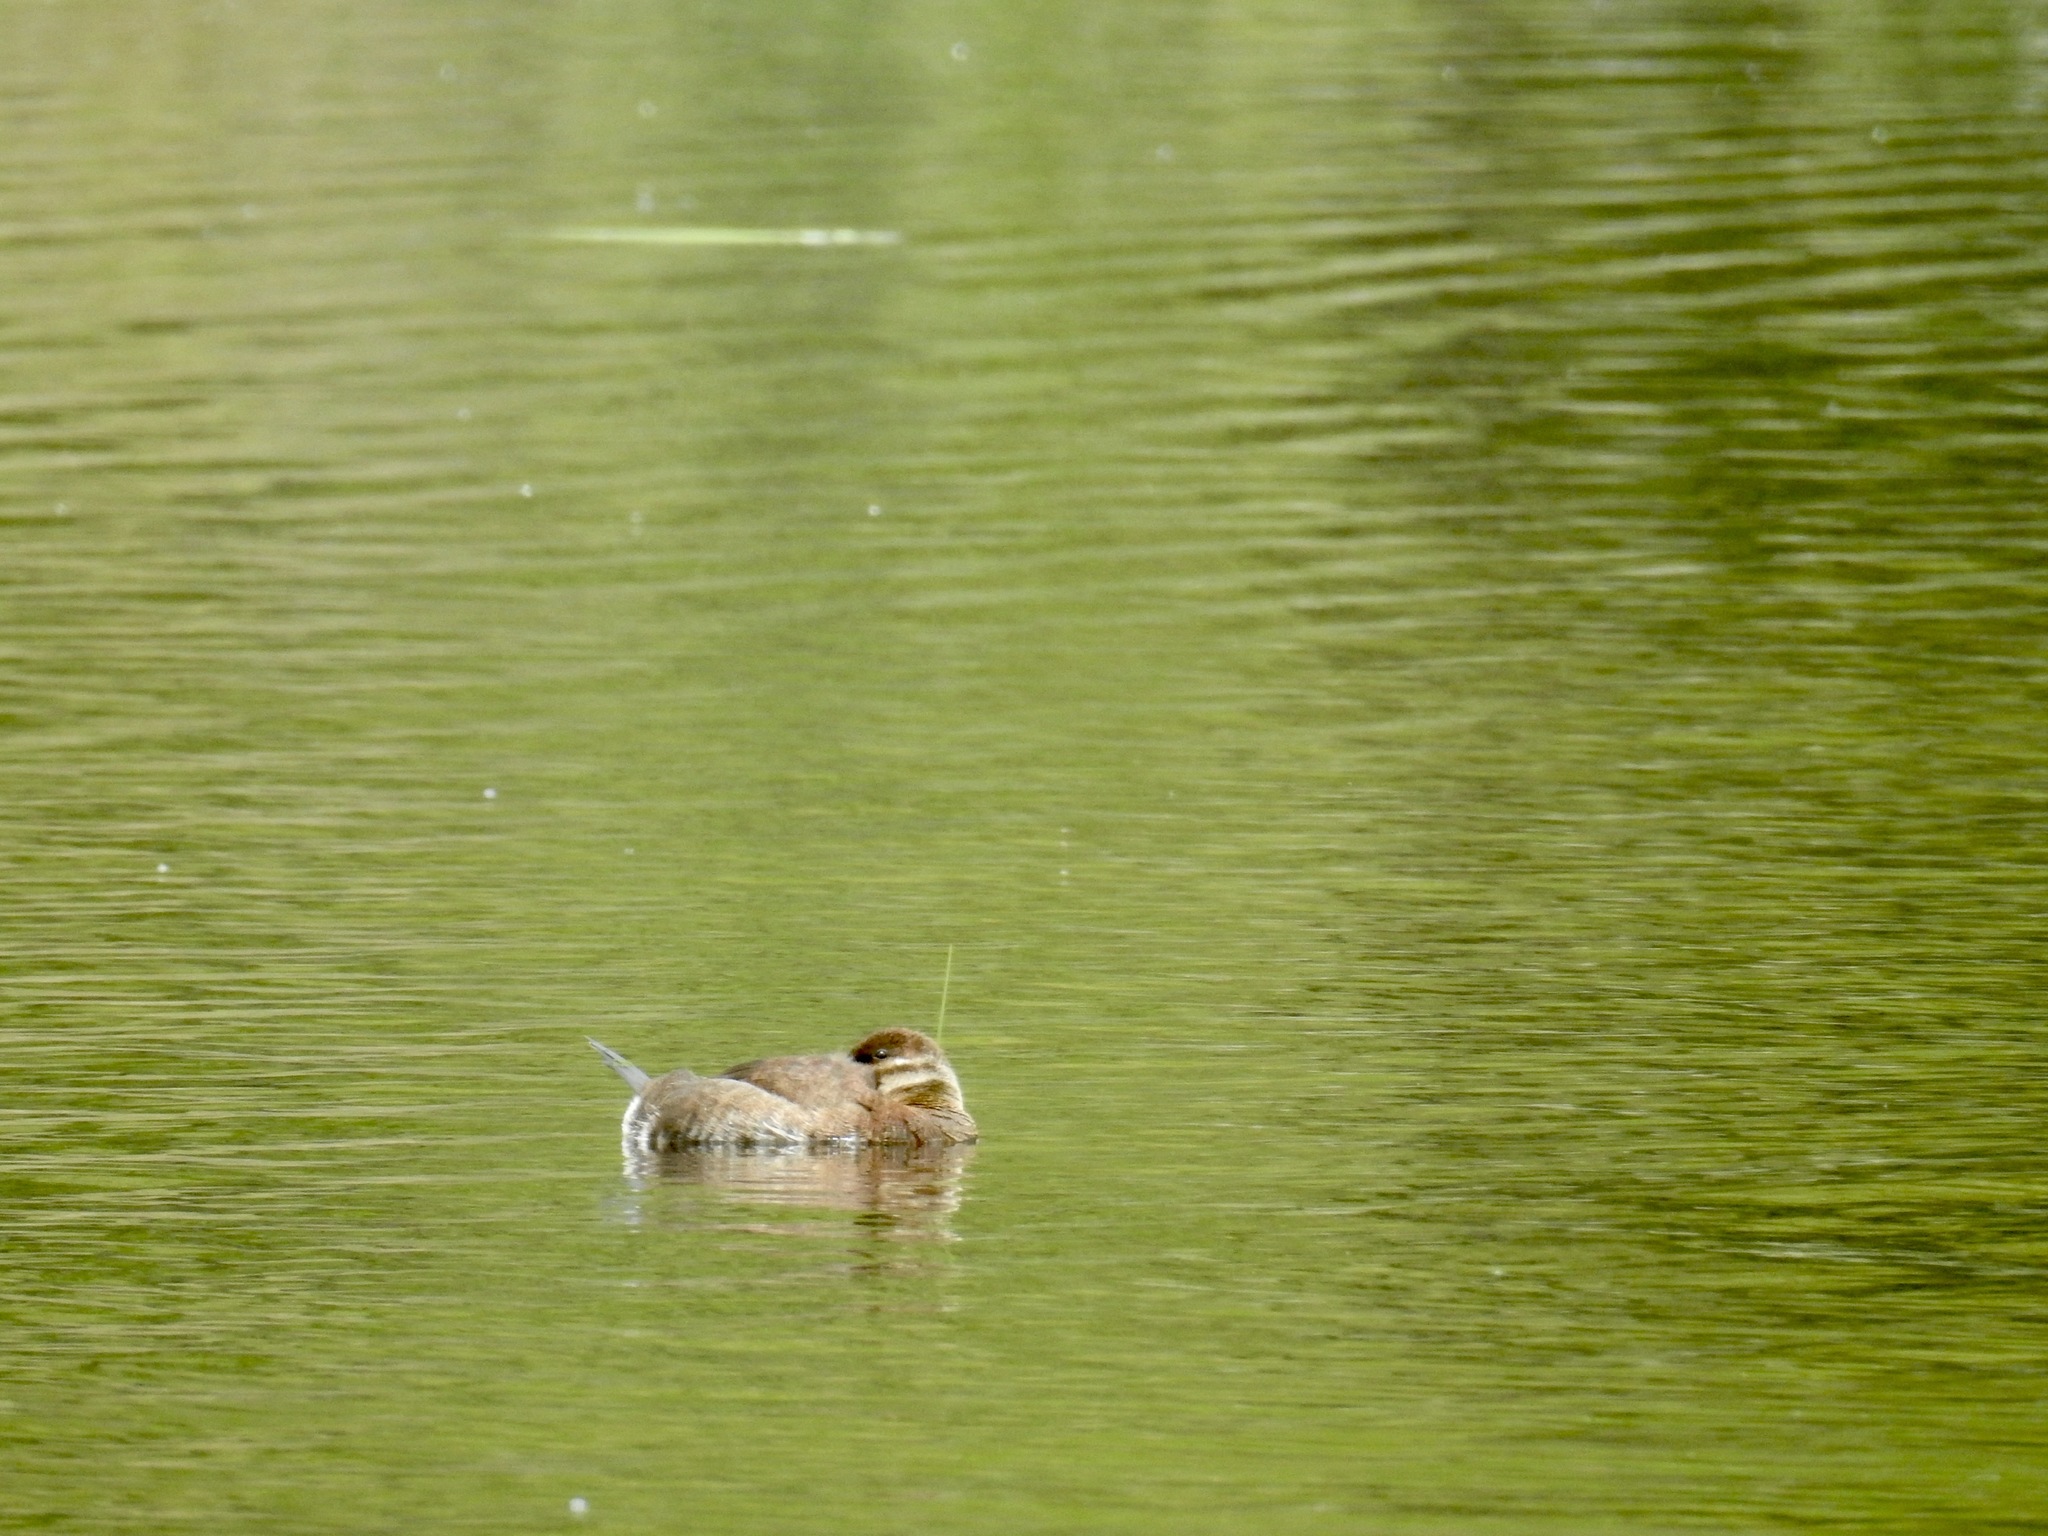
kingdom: Animalia
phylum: Chordata
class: Aves
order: Anseriformes
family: Anatidae
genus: Oxyura
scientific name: Oxyura jamaicensis
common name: Ruddy duck
